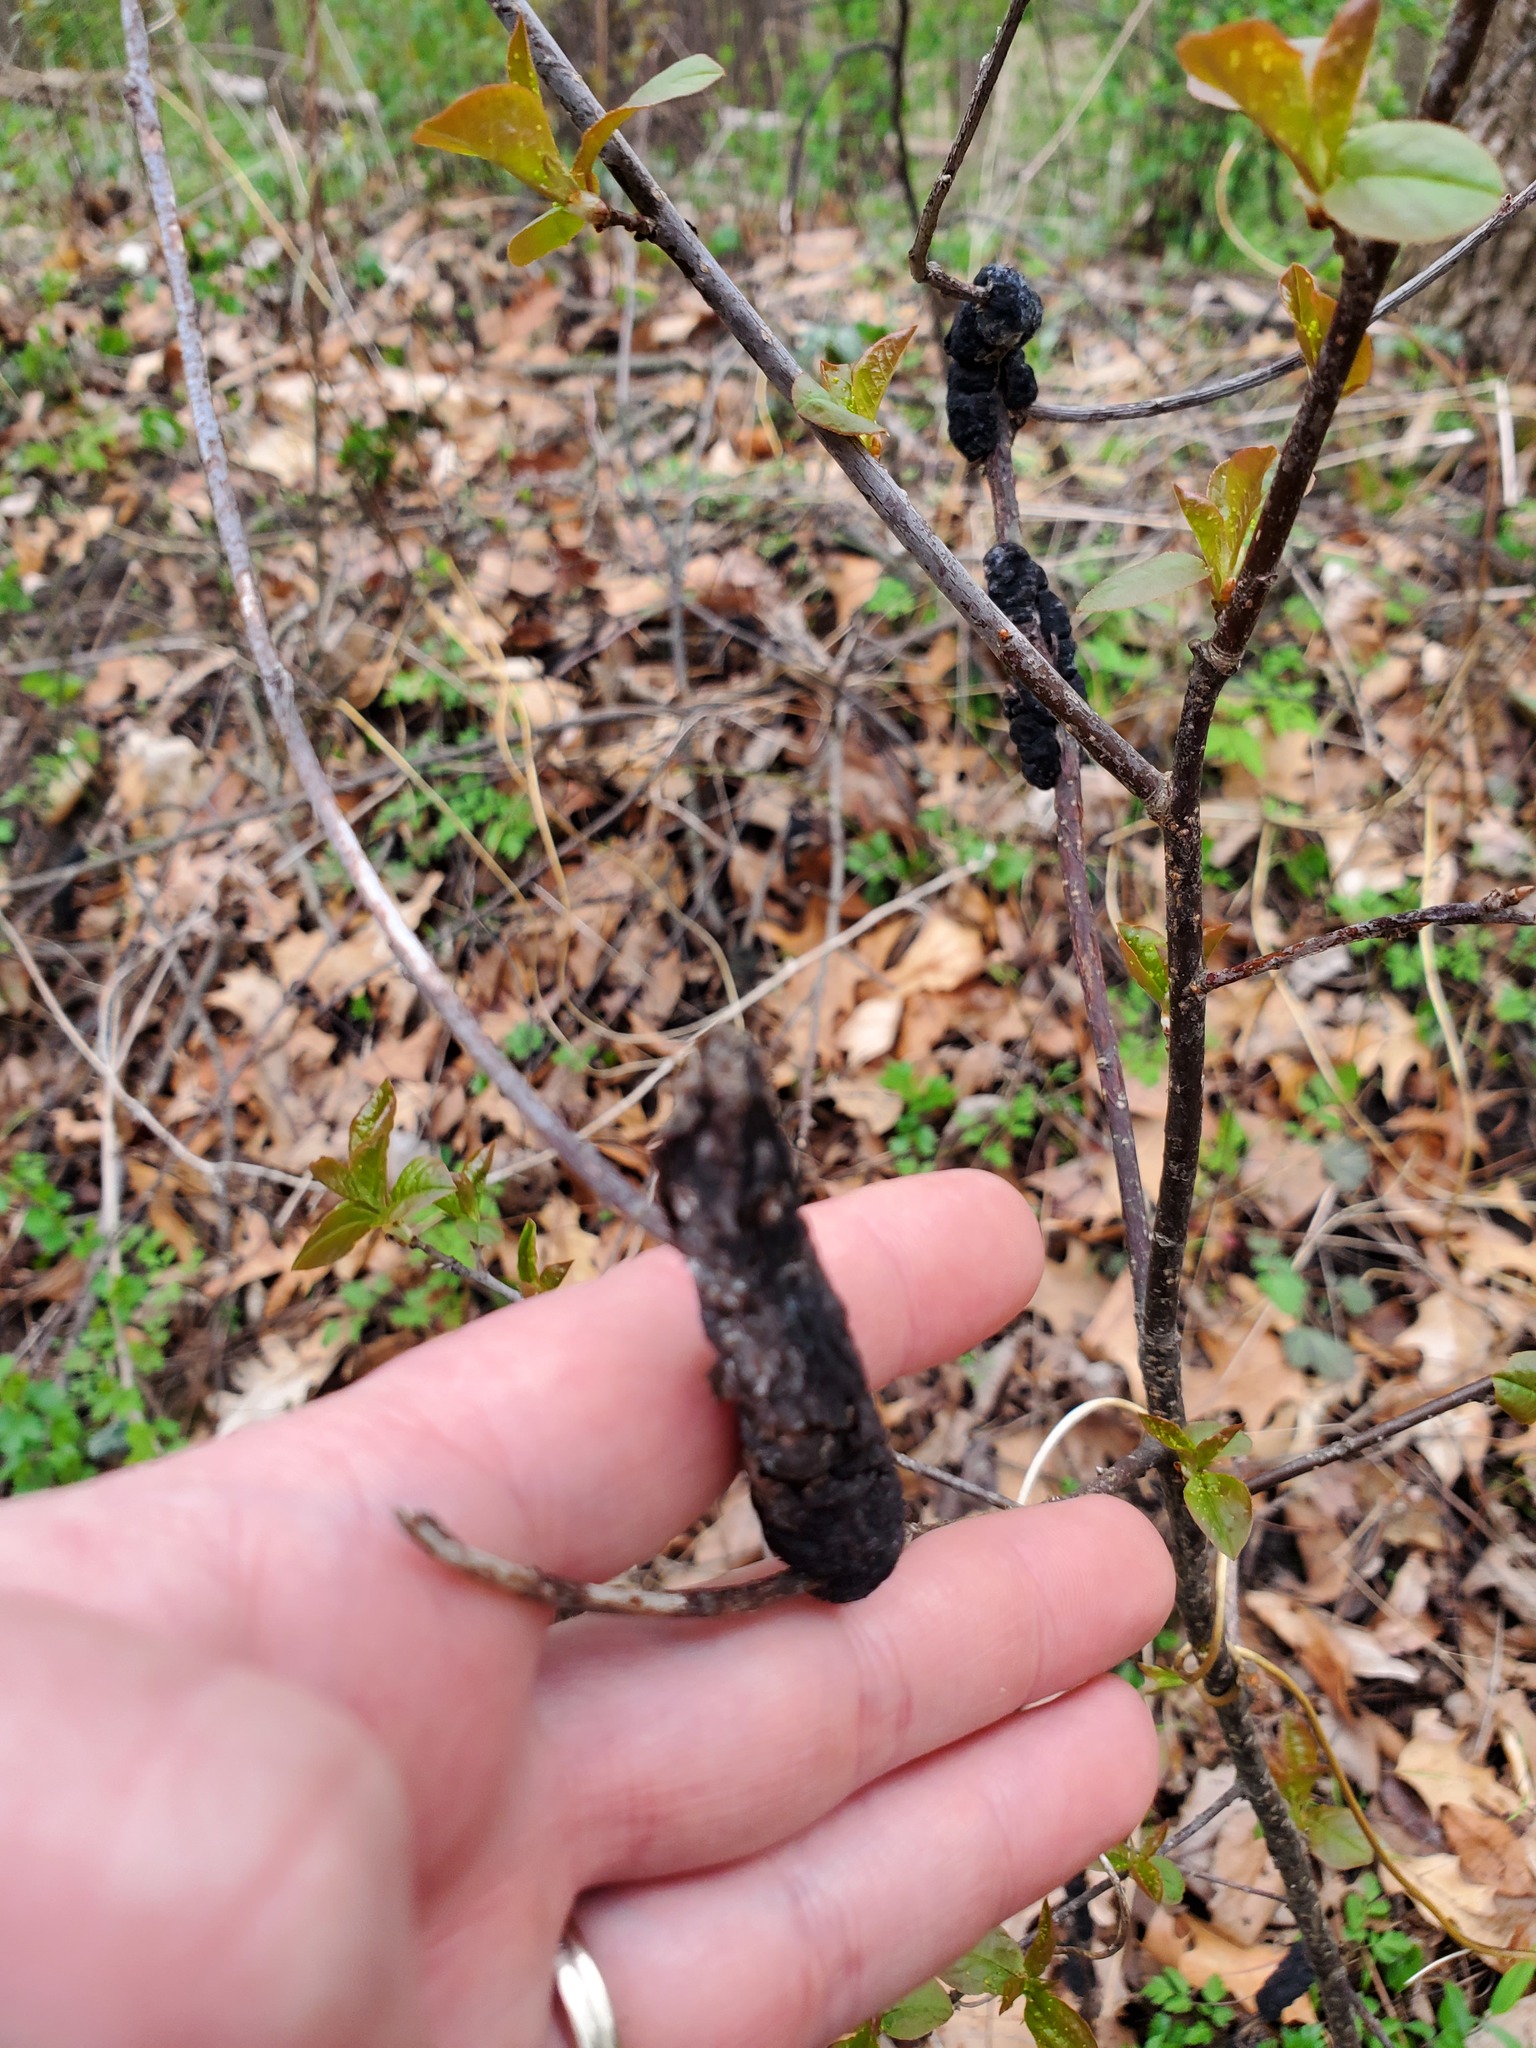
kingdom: Fungi
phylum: Ascomycota
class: Dothideomycetes
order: Venturiales
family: Venturiaceae
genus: Apiosporina
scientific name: Apiosporina morbosa
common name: Black knot
